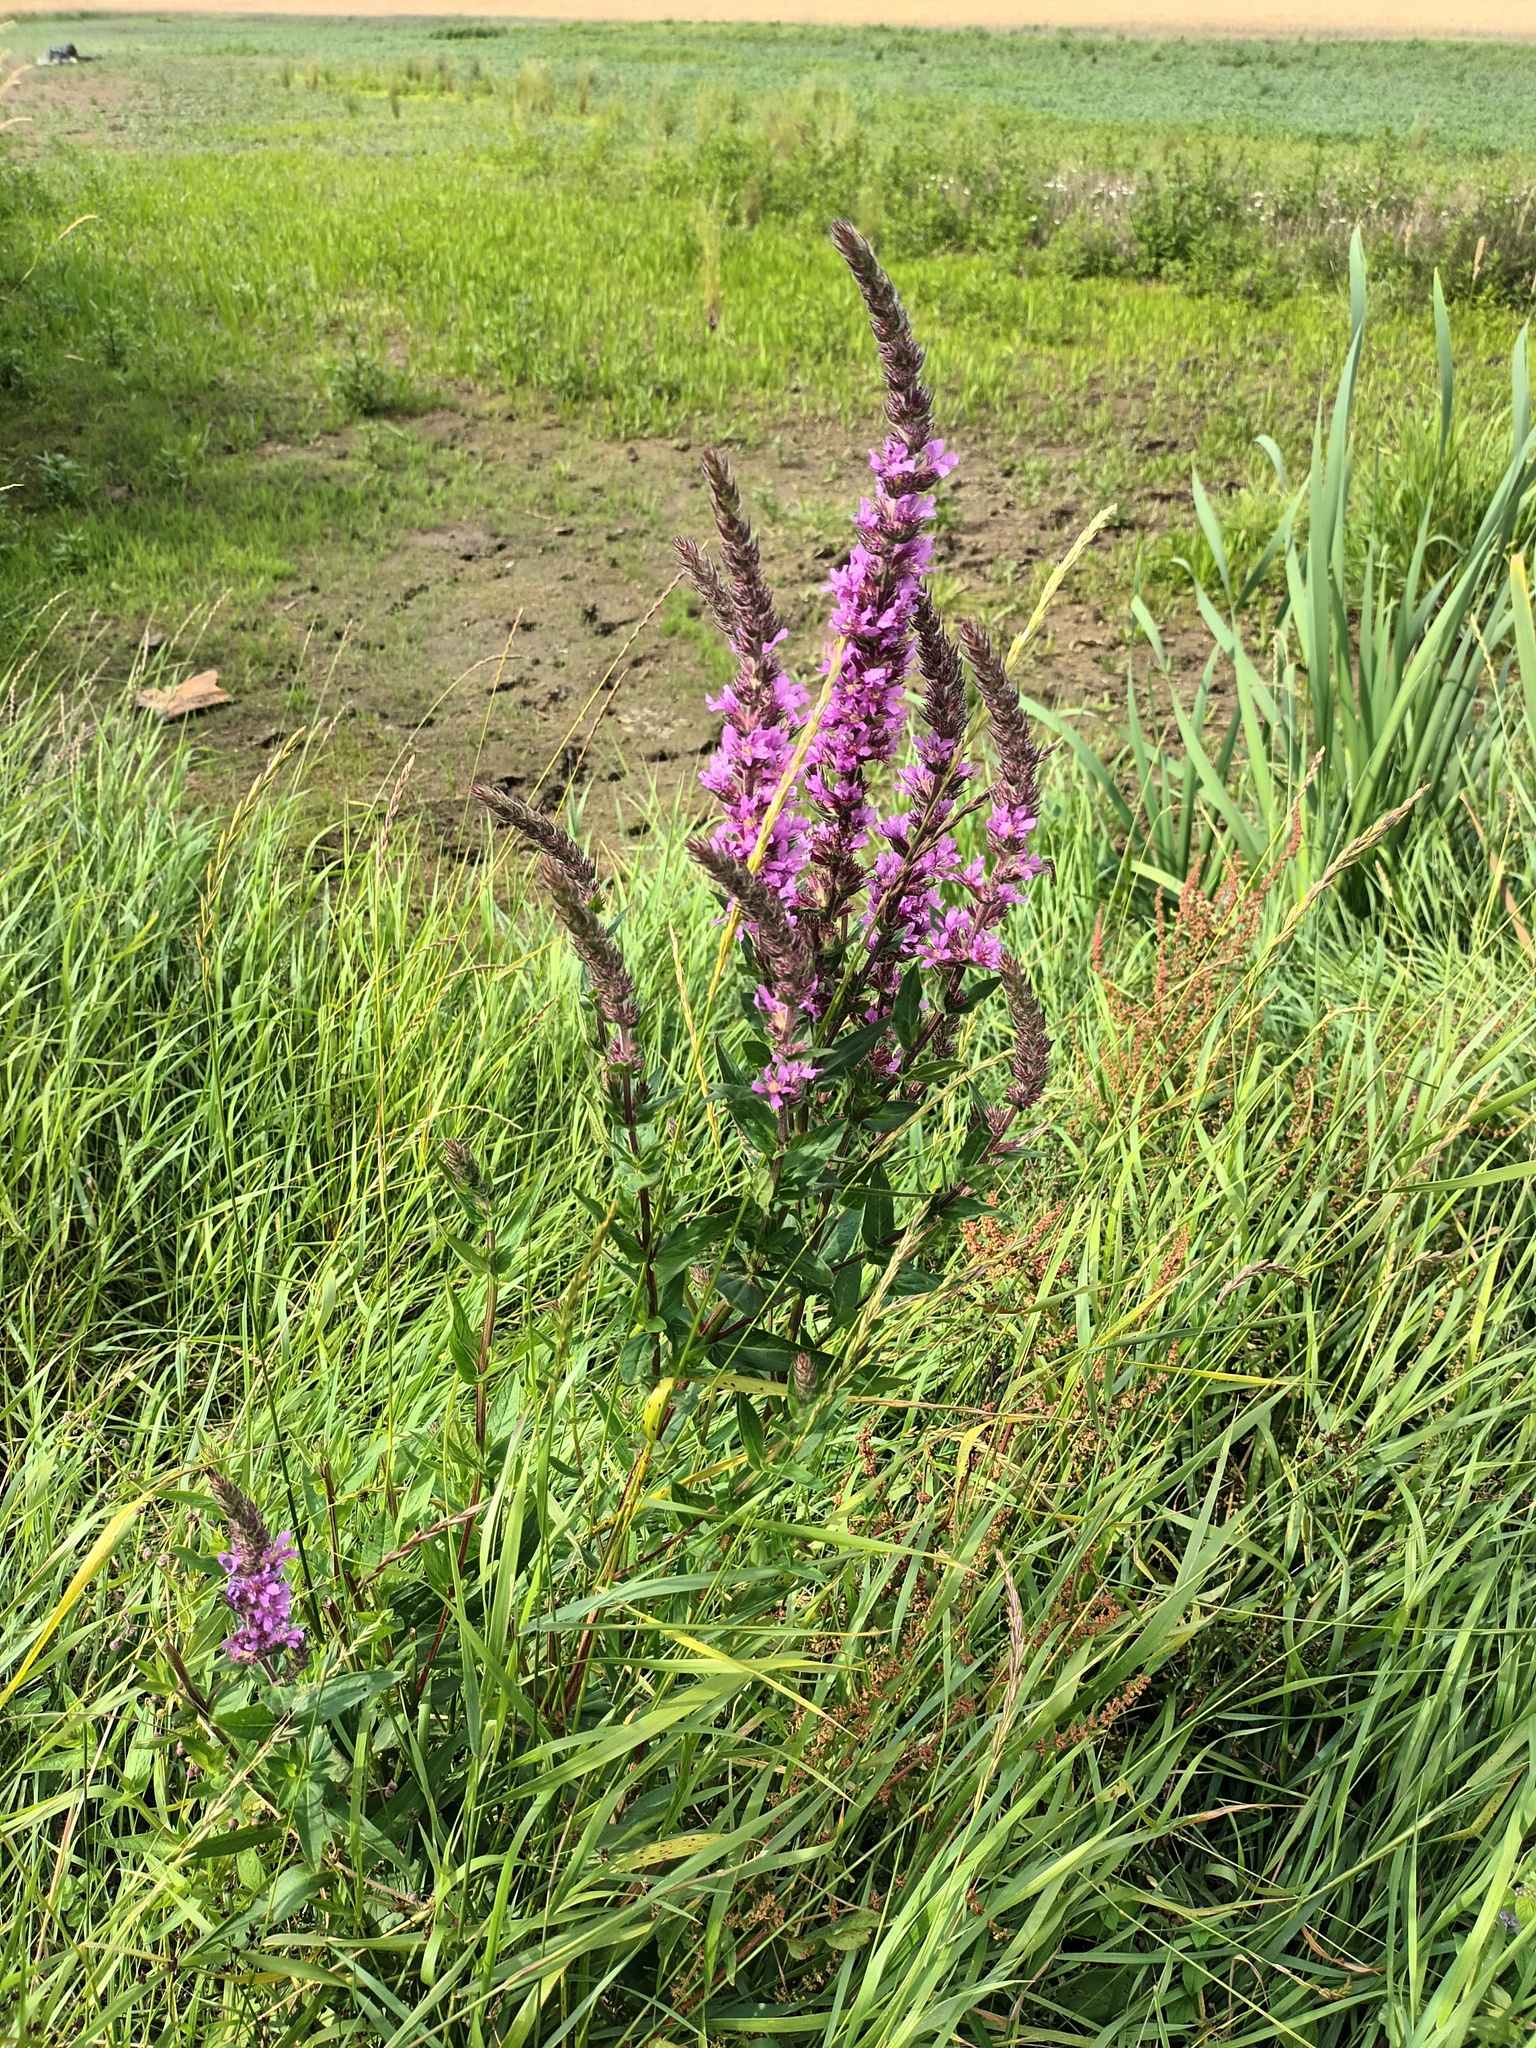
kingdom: Plantae
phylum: Tracheophyta
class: Magnoliopsida
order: Myrtales
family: Lythraceae
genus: Lythrum
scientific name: Lythrum salicaria
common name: Purple loosestrife
